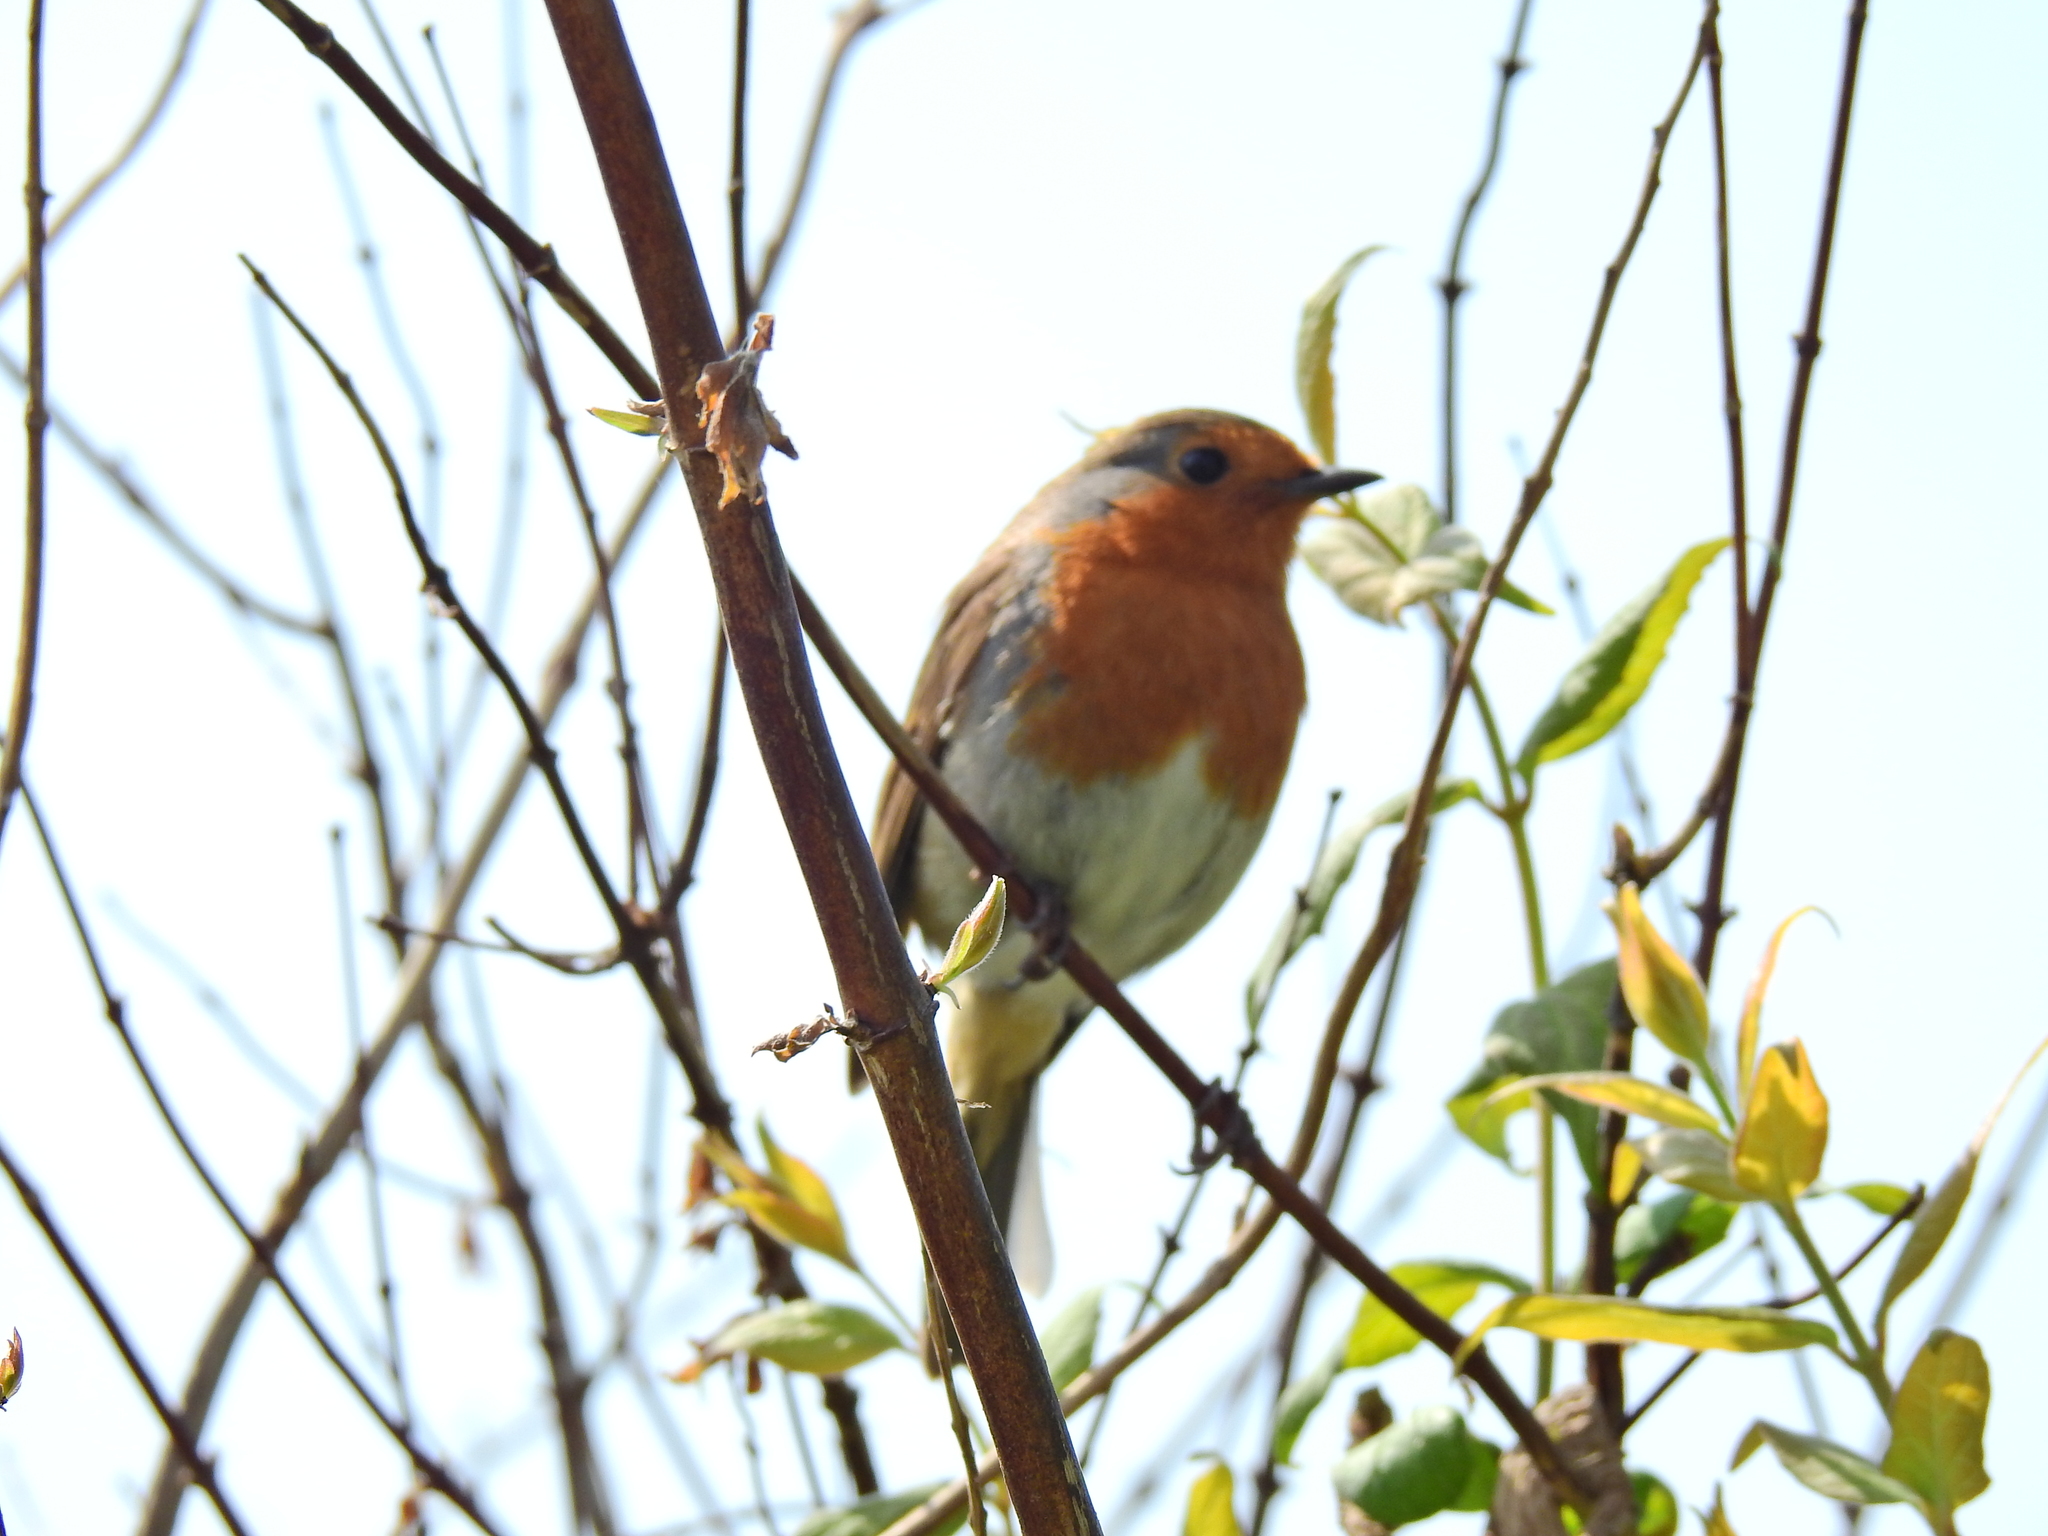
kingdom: Animalia
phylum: Chordata
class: Aves
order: Passeriformes
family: Muscicapidae
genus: Erithacus
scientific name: Erithacus rubecula
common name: European robin
